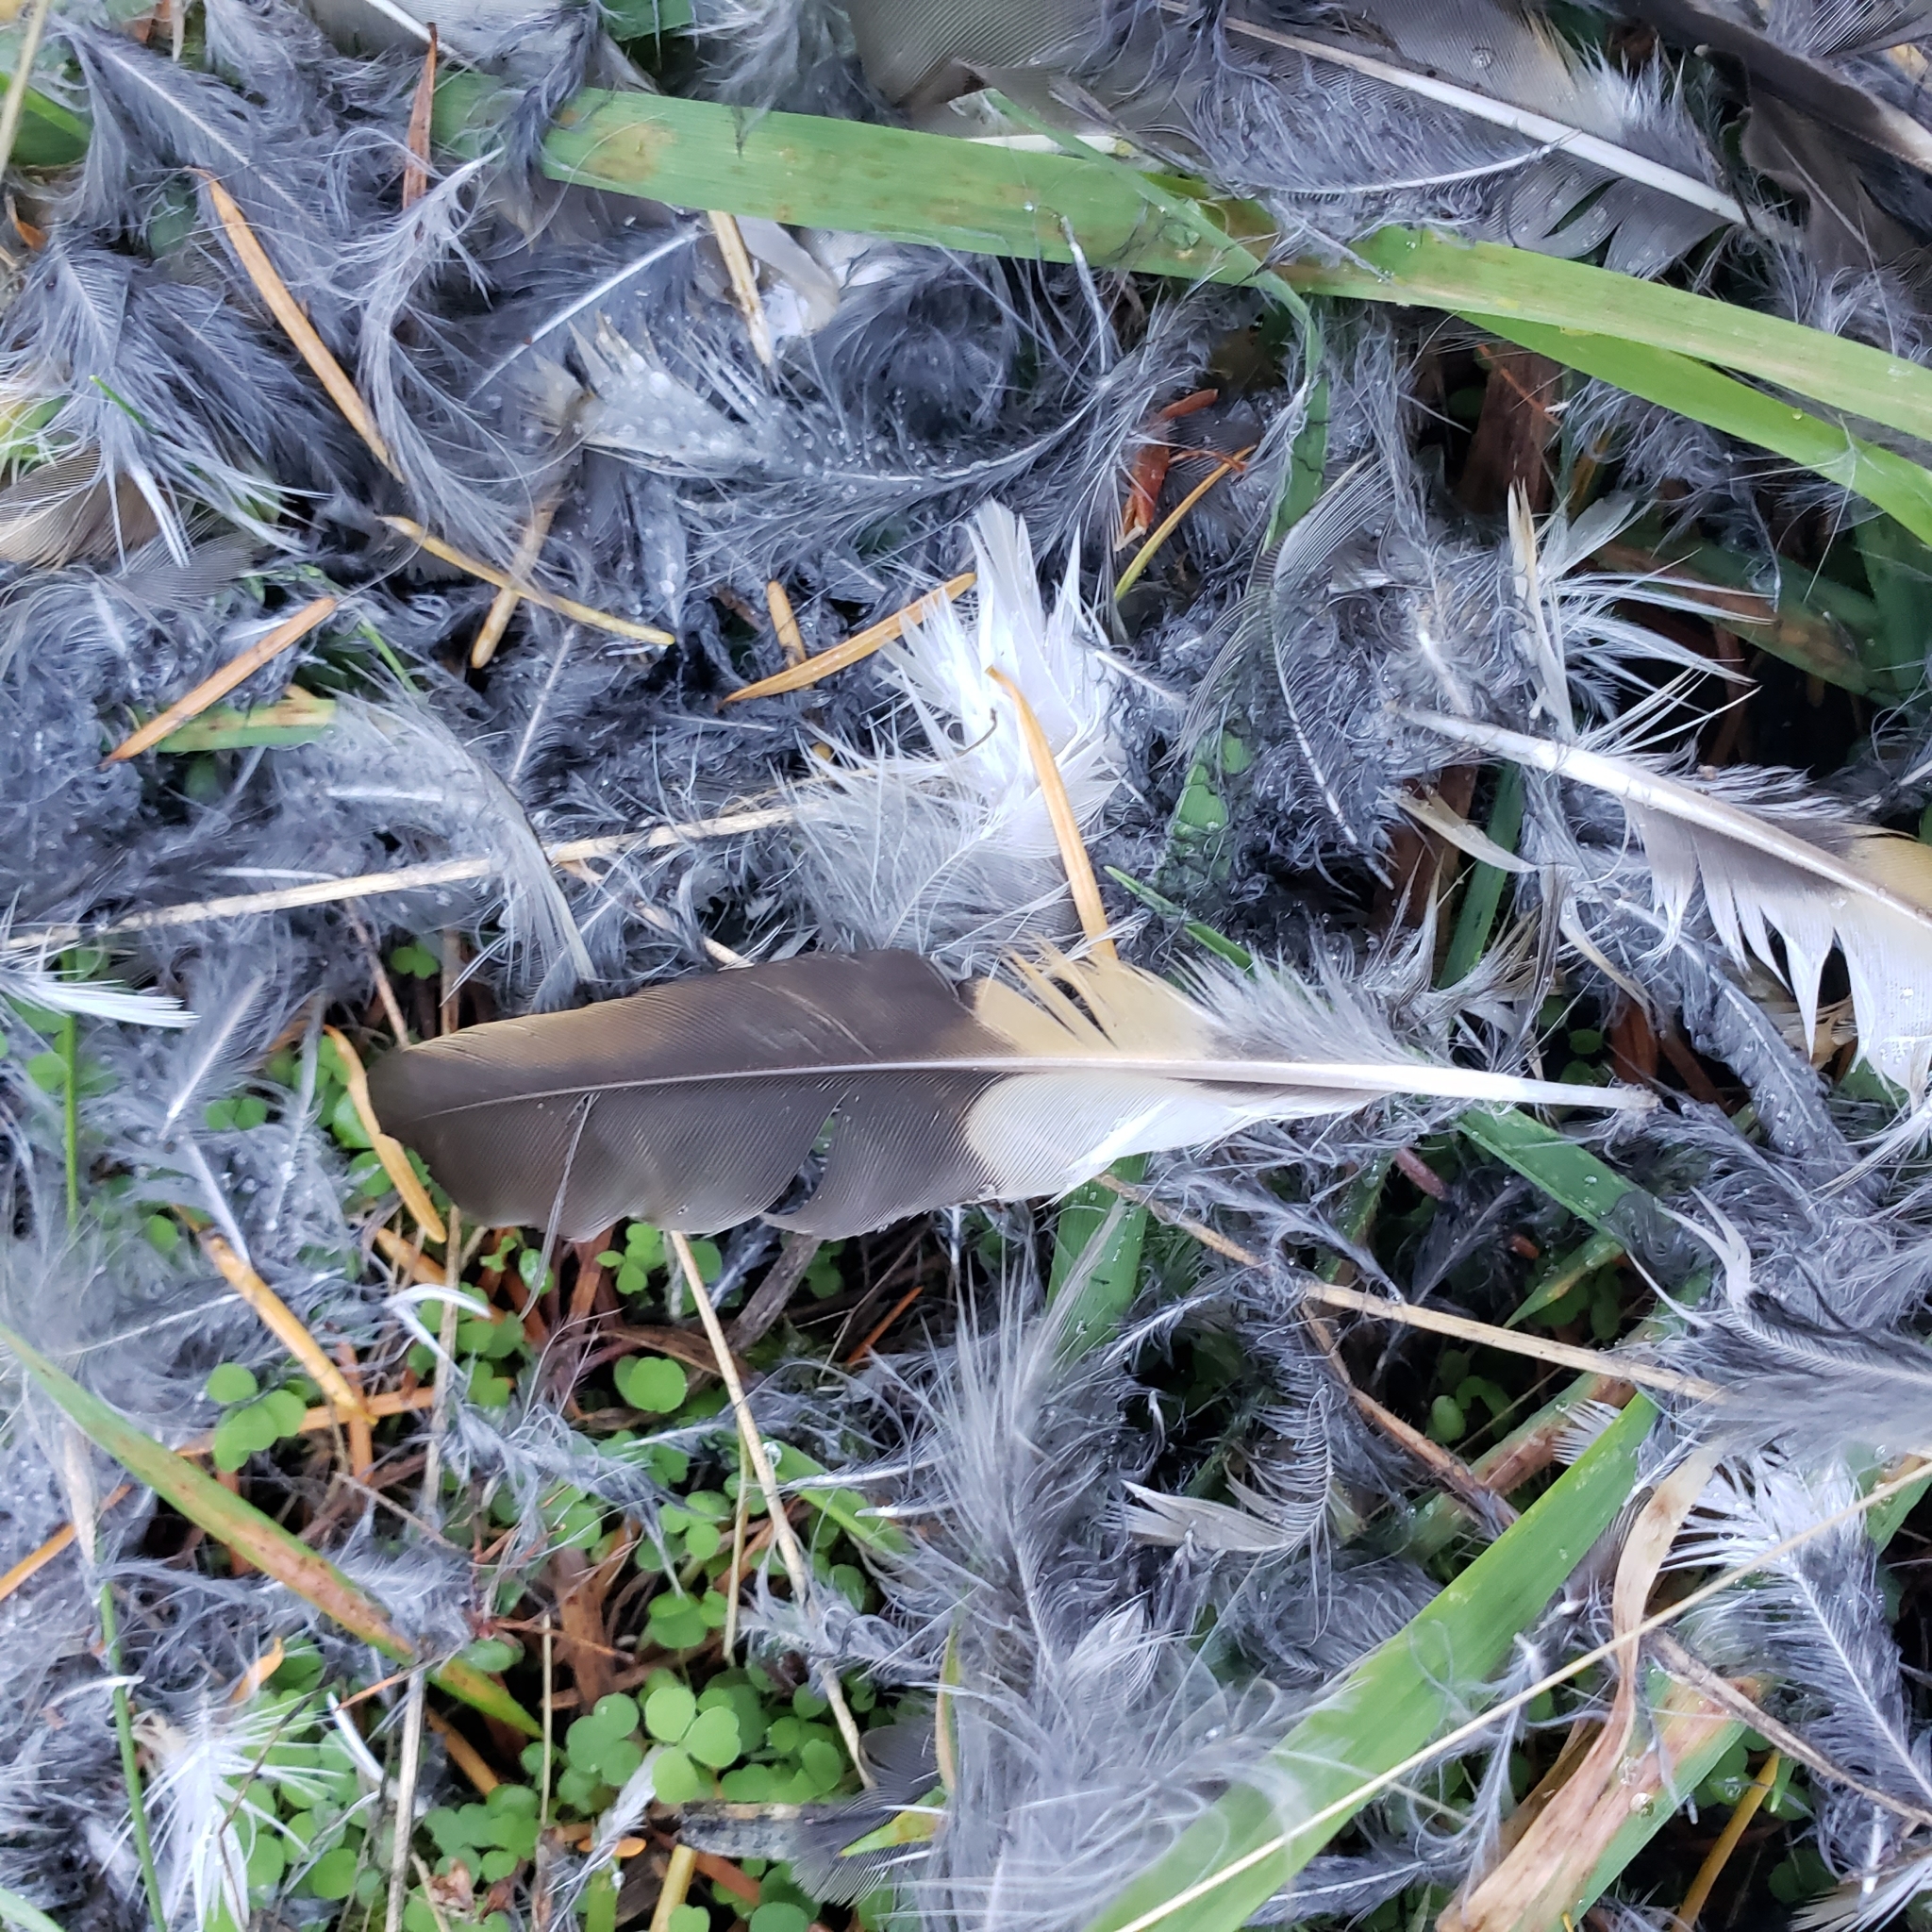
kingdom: Animalia
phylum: Chordata
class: Aves
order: Passeriformes
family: Turdidae
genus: Ixoreus
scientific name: Ixoreus naevius
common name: Varied thrush
